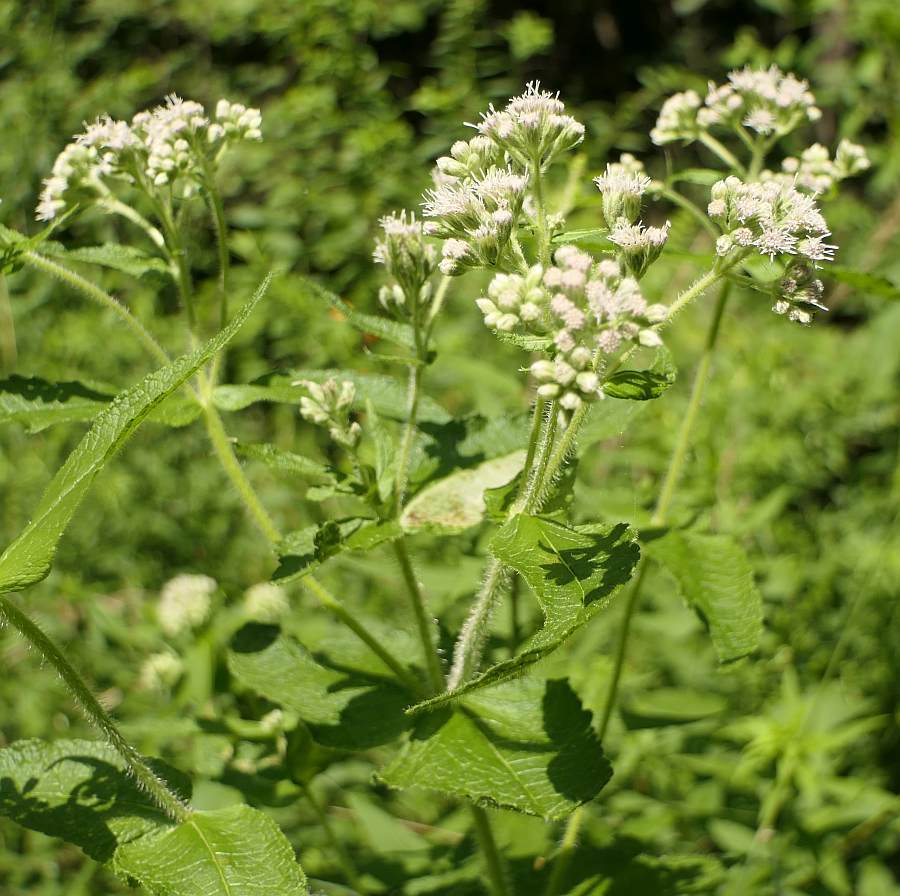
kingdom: Plantae
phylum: Tracheophyta
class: Magnoliopsida
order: Asterales
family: Asteraceae
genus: Eupatorium
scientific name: Eupatorium perfoliatum
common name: Boneset
